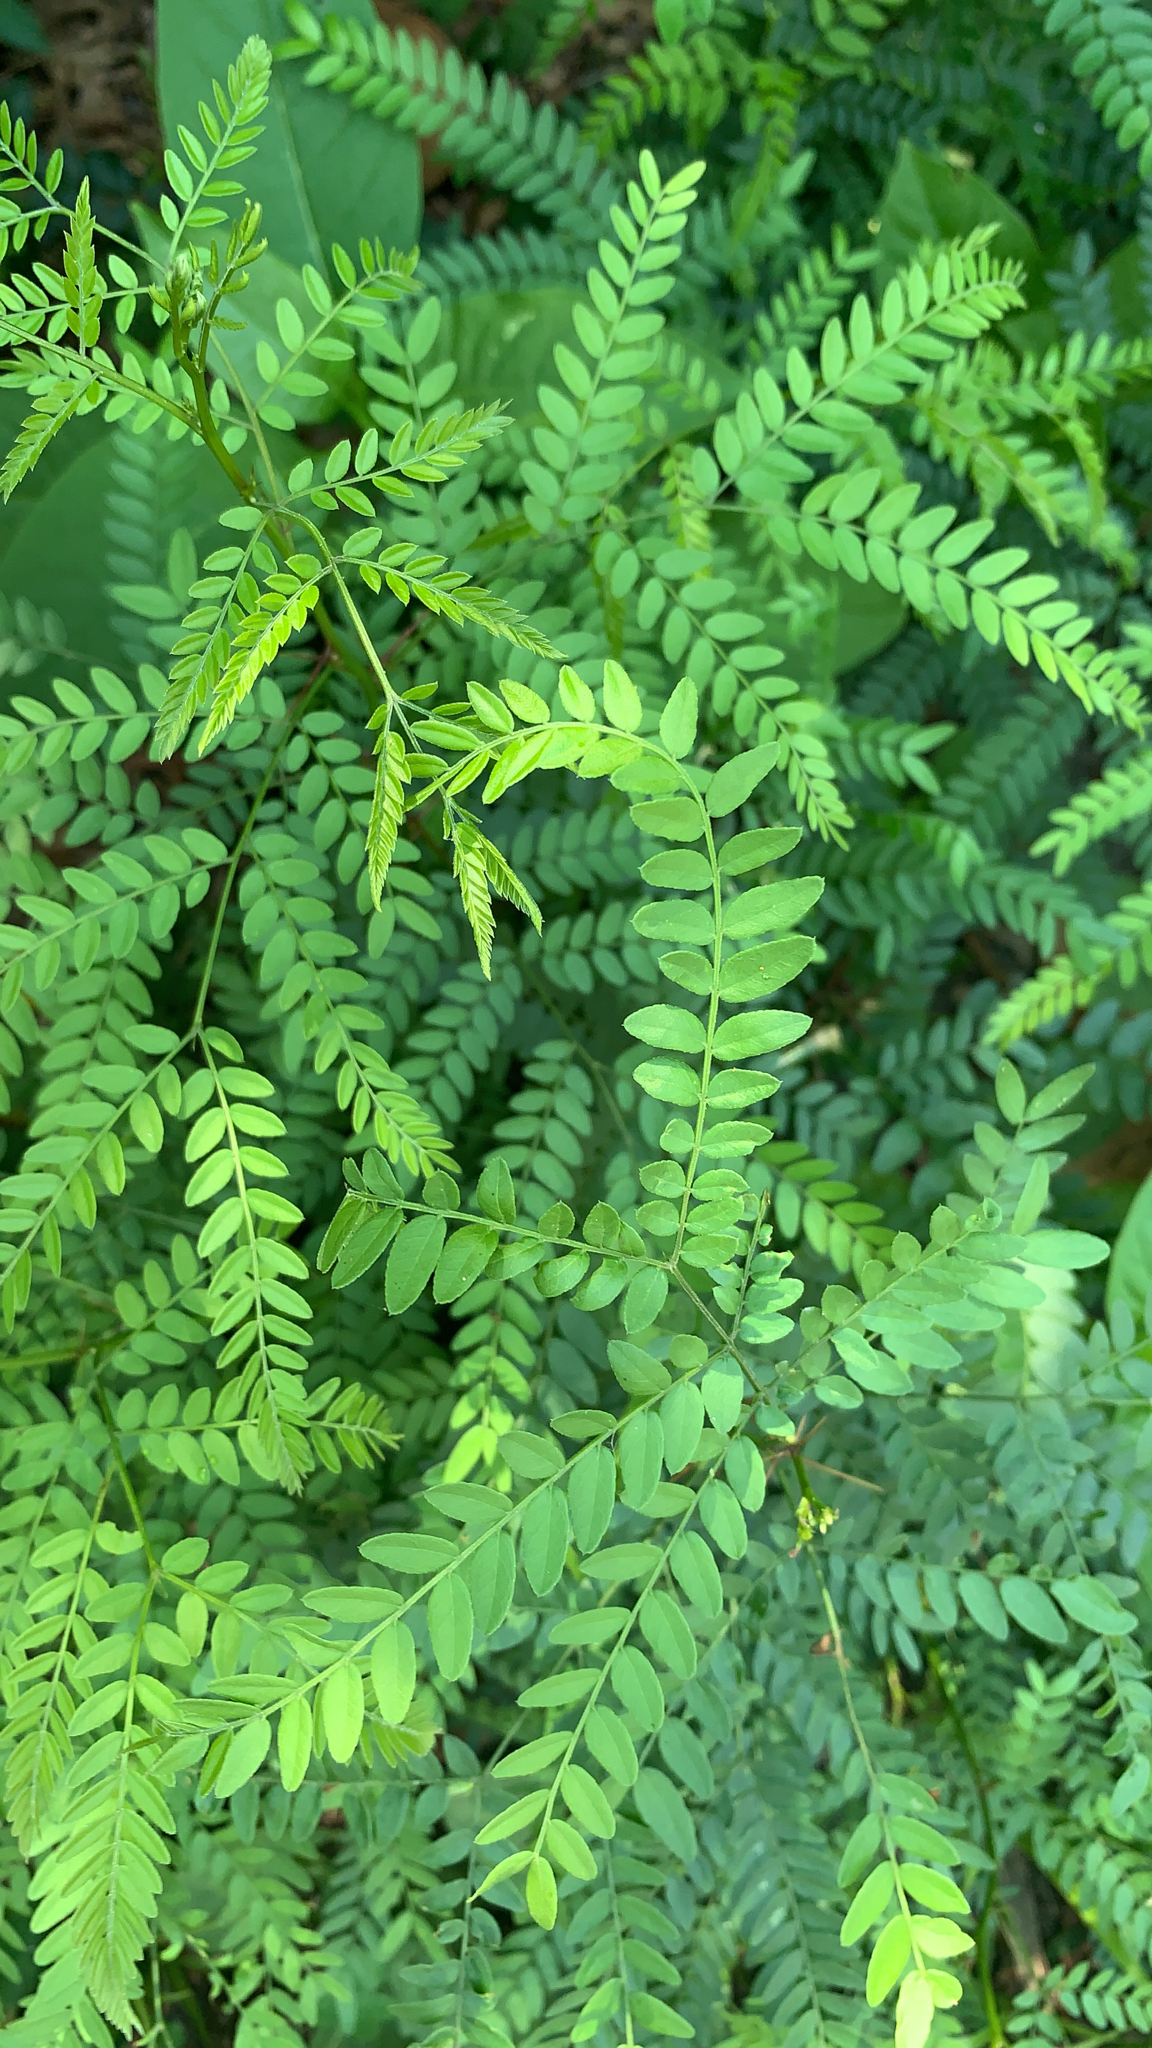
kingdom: Plantae
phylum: Tracheophyta
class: Magnoliopsida
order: Fabales
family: Fabaceae
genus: Gleditsia
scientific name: Gleditsia triacanthos
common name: Common honeylocust
